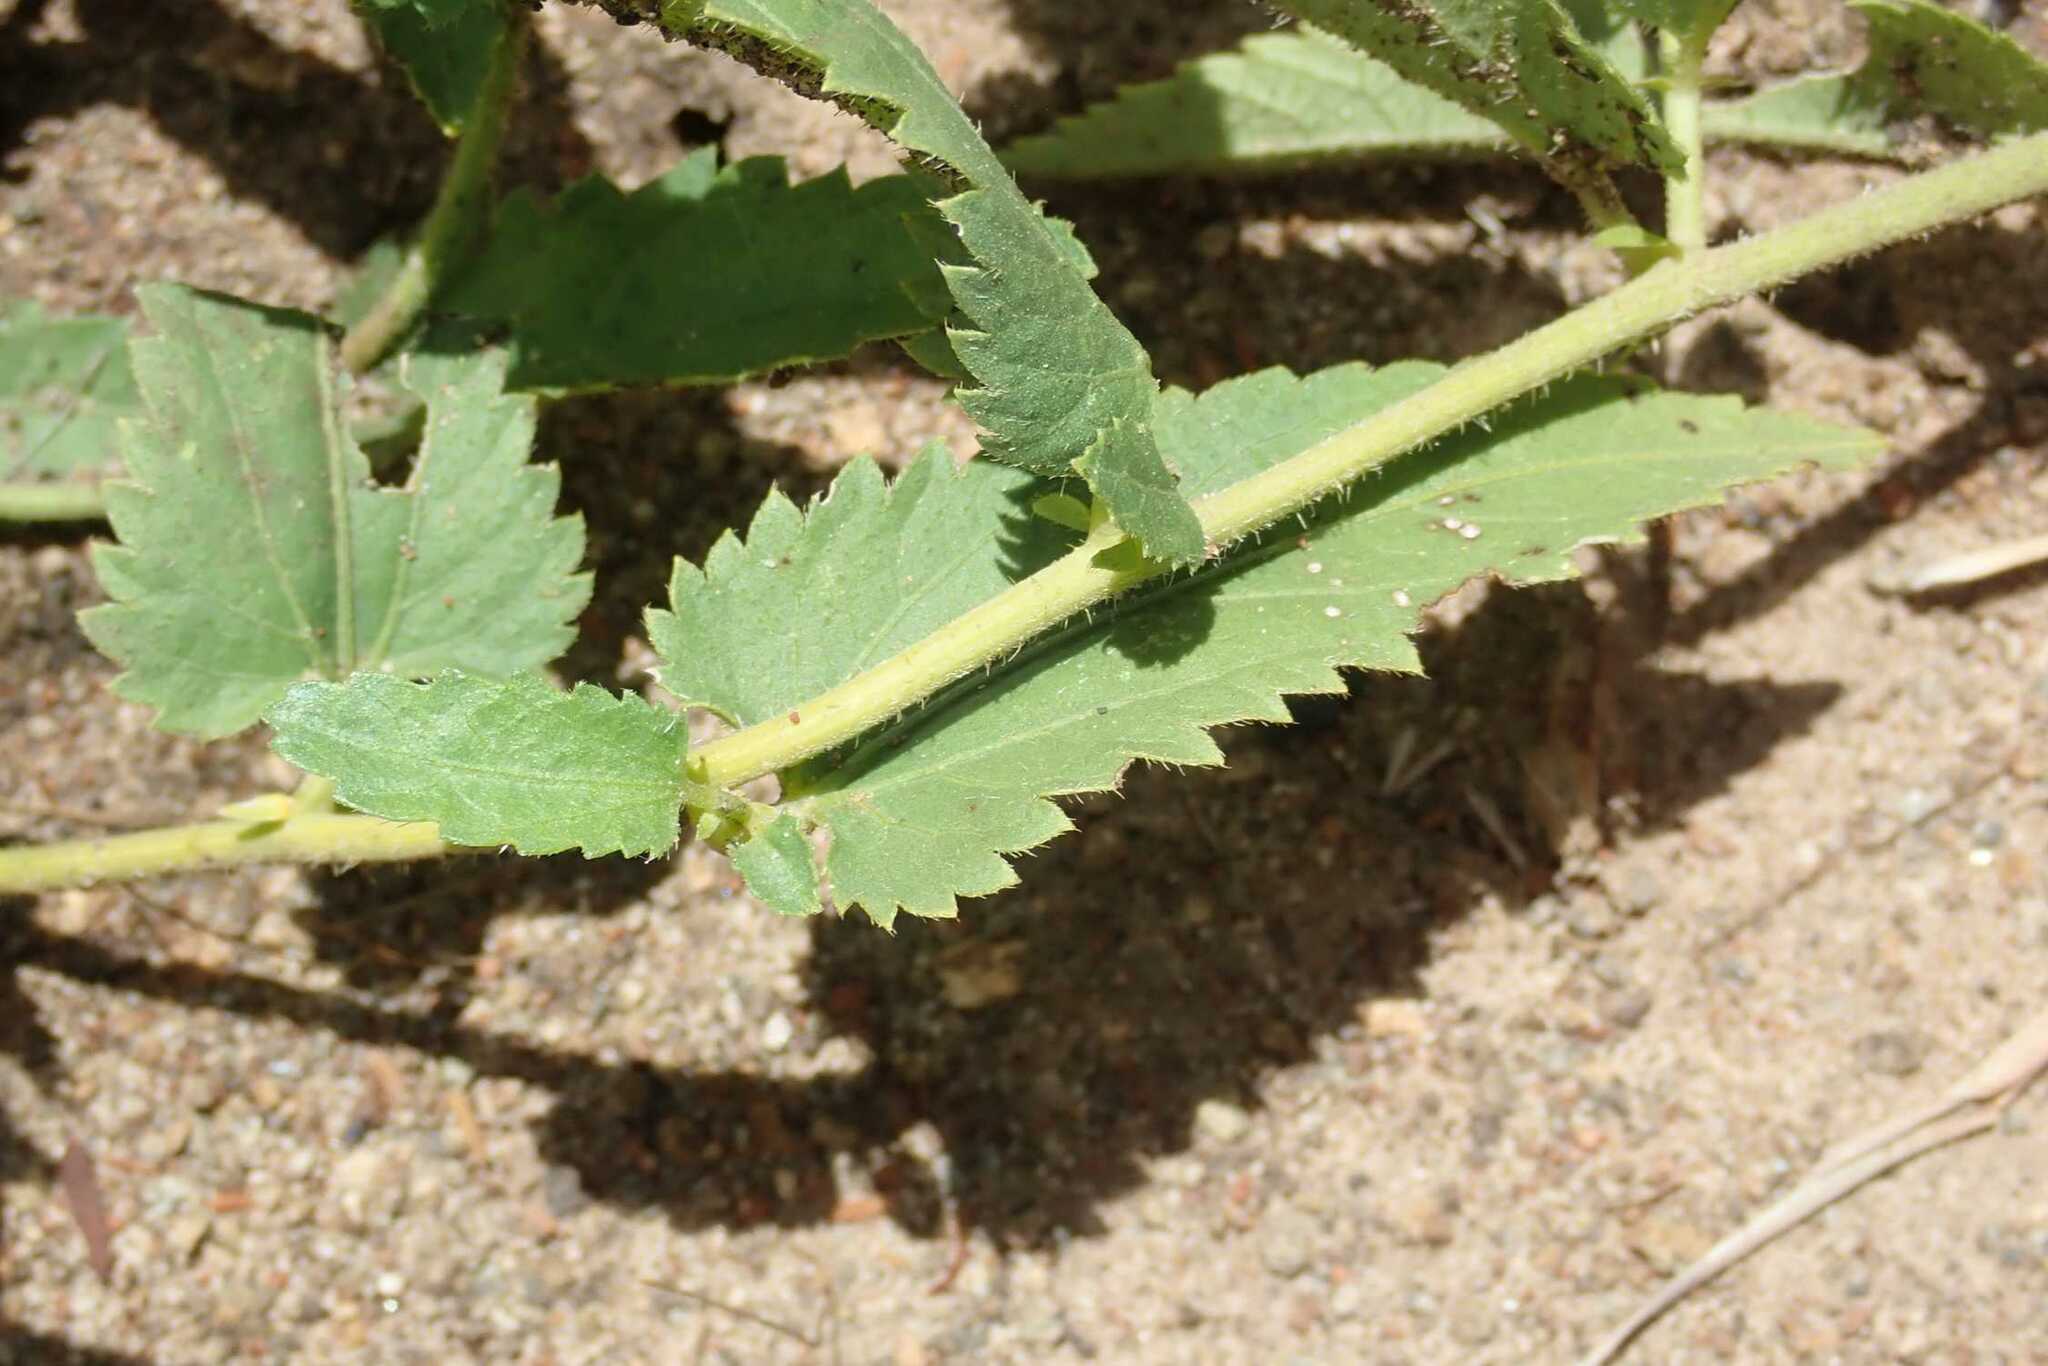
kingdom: Plantae
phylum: Tracheophyta
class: Magnoliopsida
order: Malpighiales
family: Euphorbiaceae
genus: Tragia
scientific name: Tragia dioica
